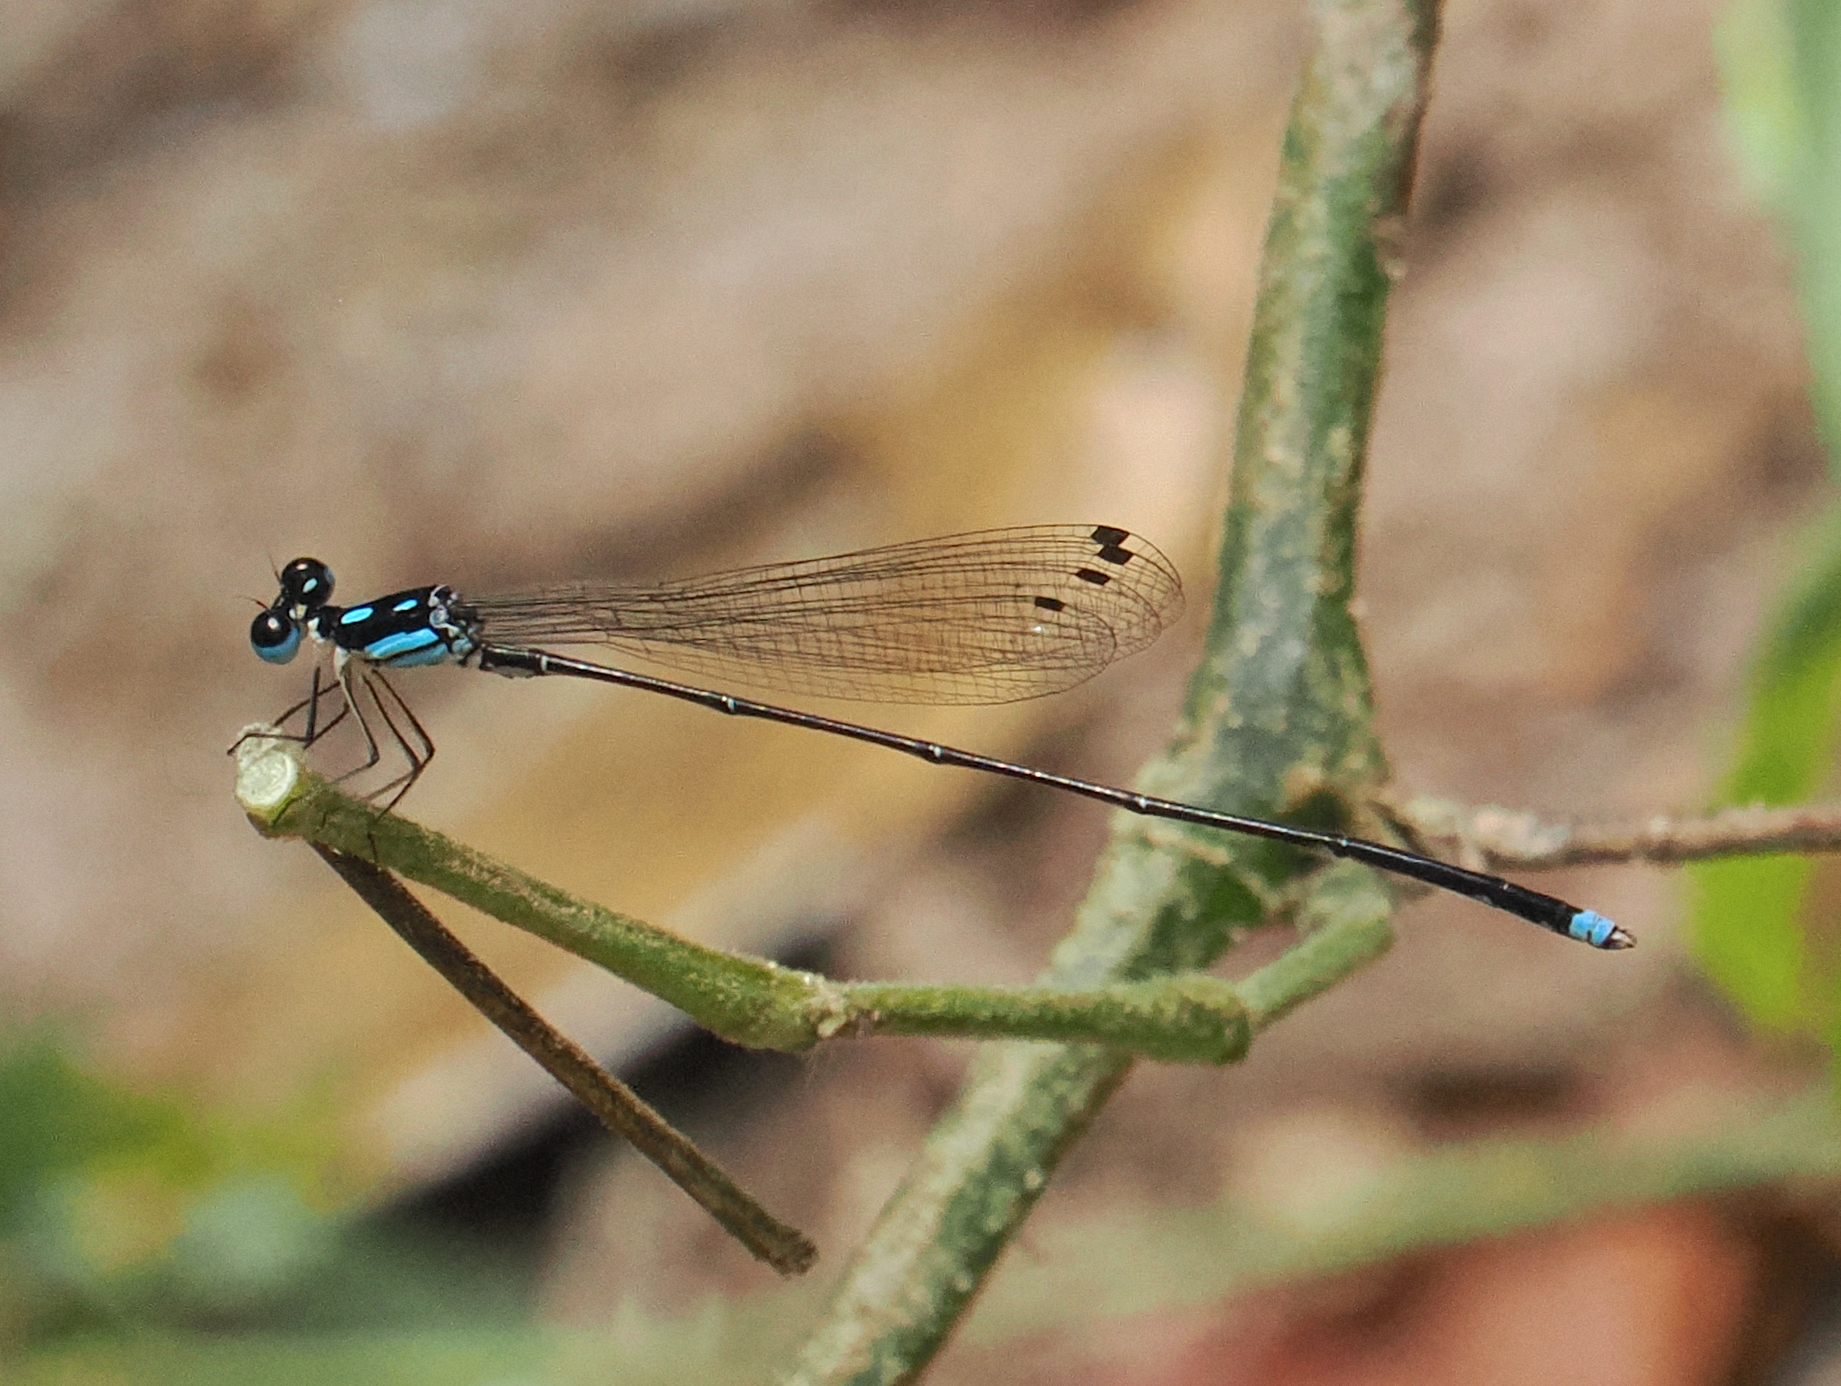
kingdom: Animalia
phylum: Arthropoda
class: Insecta
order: Odonata
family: Platycnemididae
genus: Coeliccia
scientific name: Coeliccia didyma
